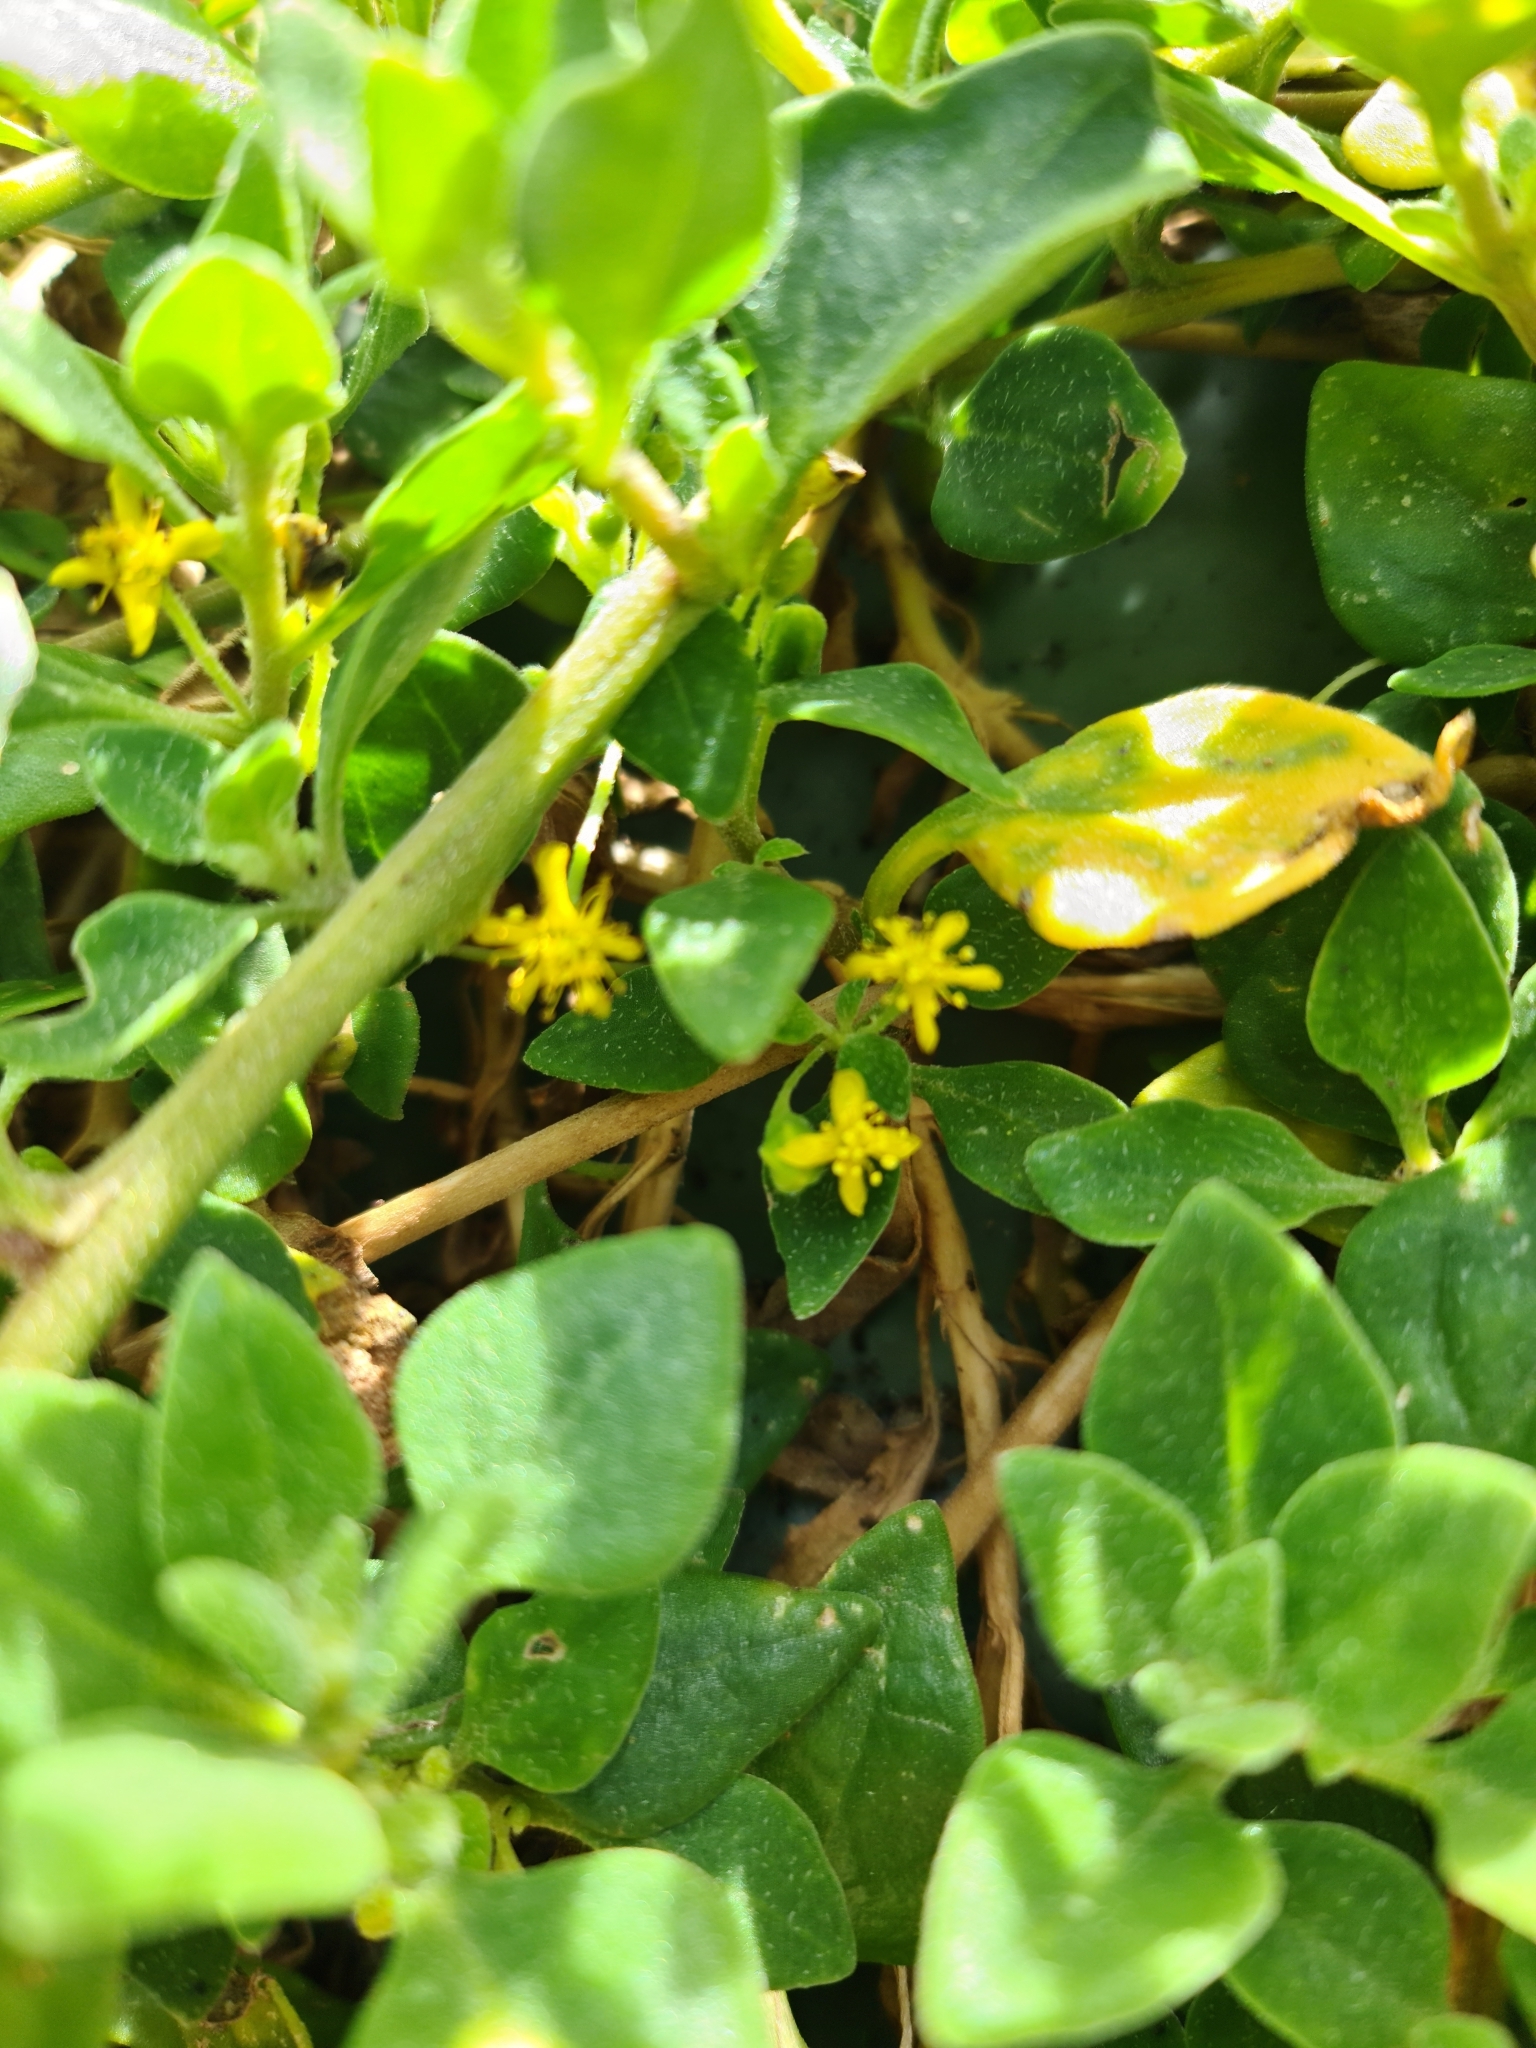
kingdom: Plantae
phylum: Tracheophyta
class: Magnoliopsida
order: Caryophyllales
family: Aizoaceae
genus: Tetragonia
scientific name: Tetragonia implexicoma
